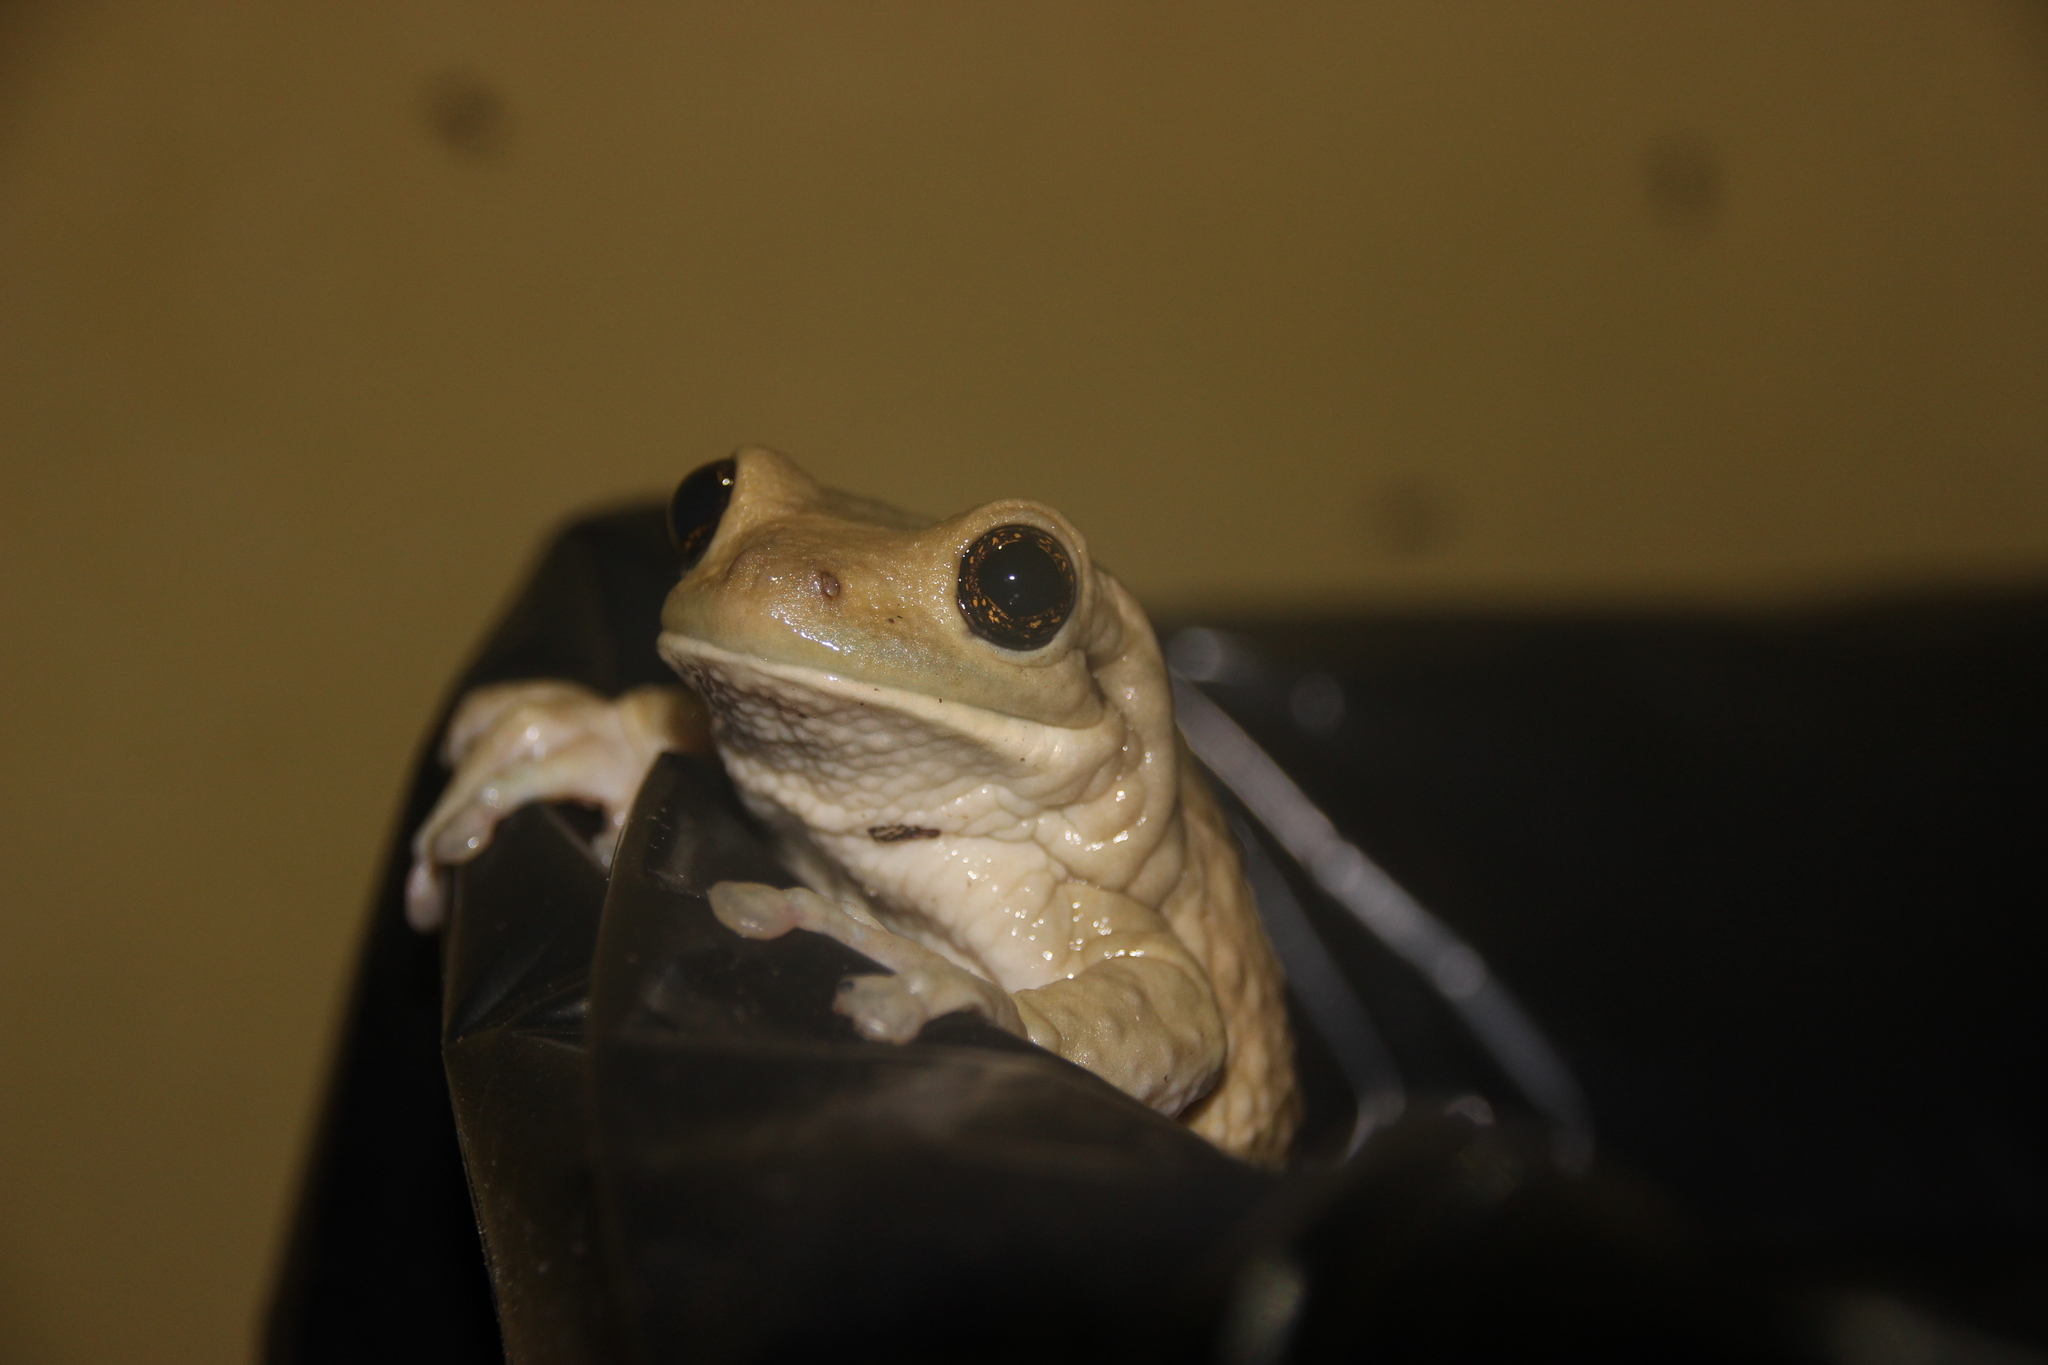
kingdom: Animalia
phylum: Chordata
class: Amphibia
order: Anura
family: Hylidae
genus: Trachycephalus
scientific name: Trachycephalus vermiculatus
